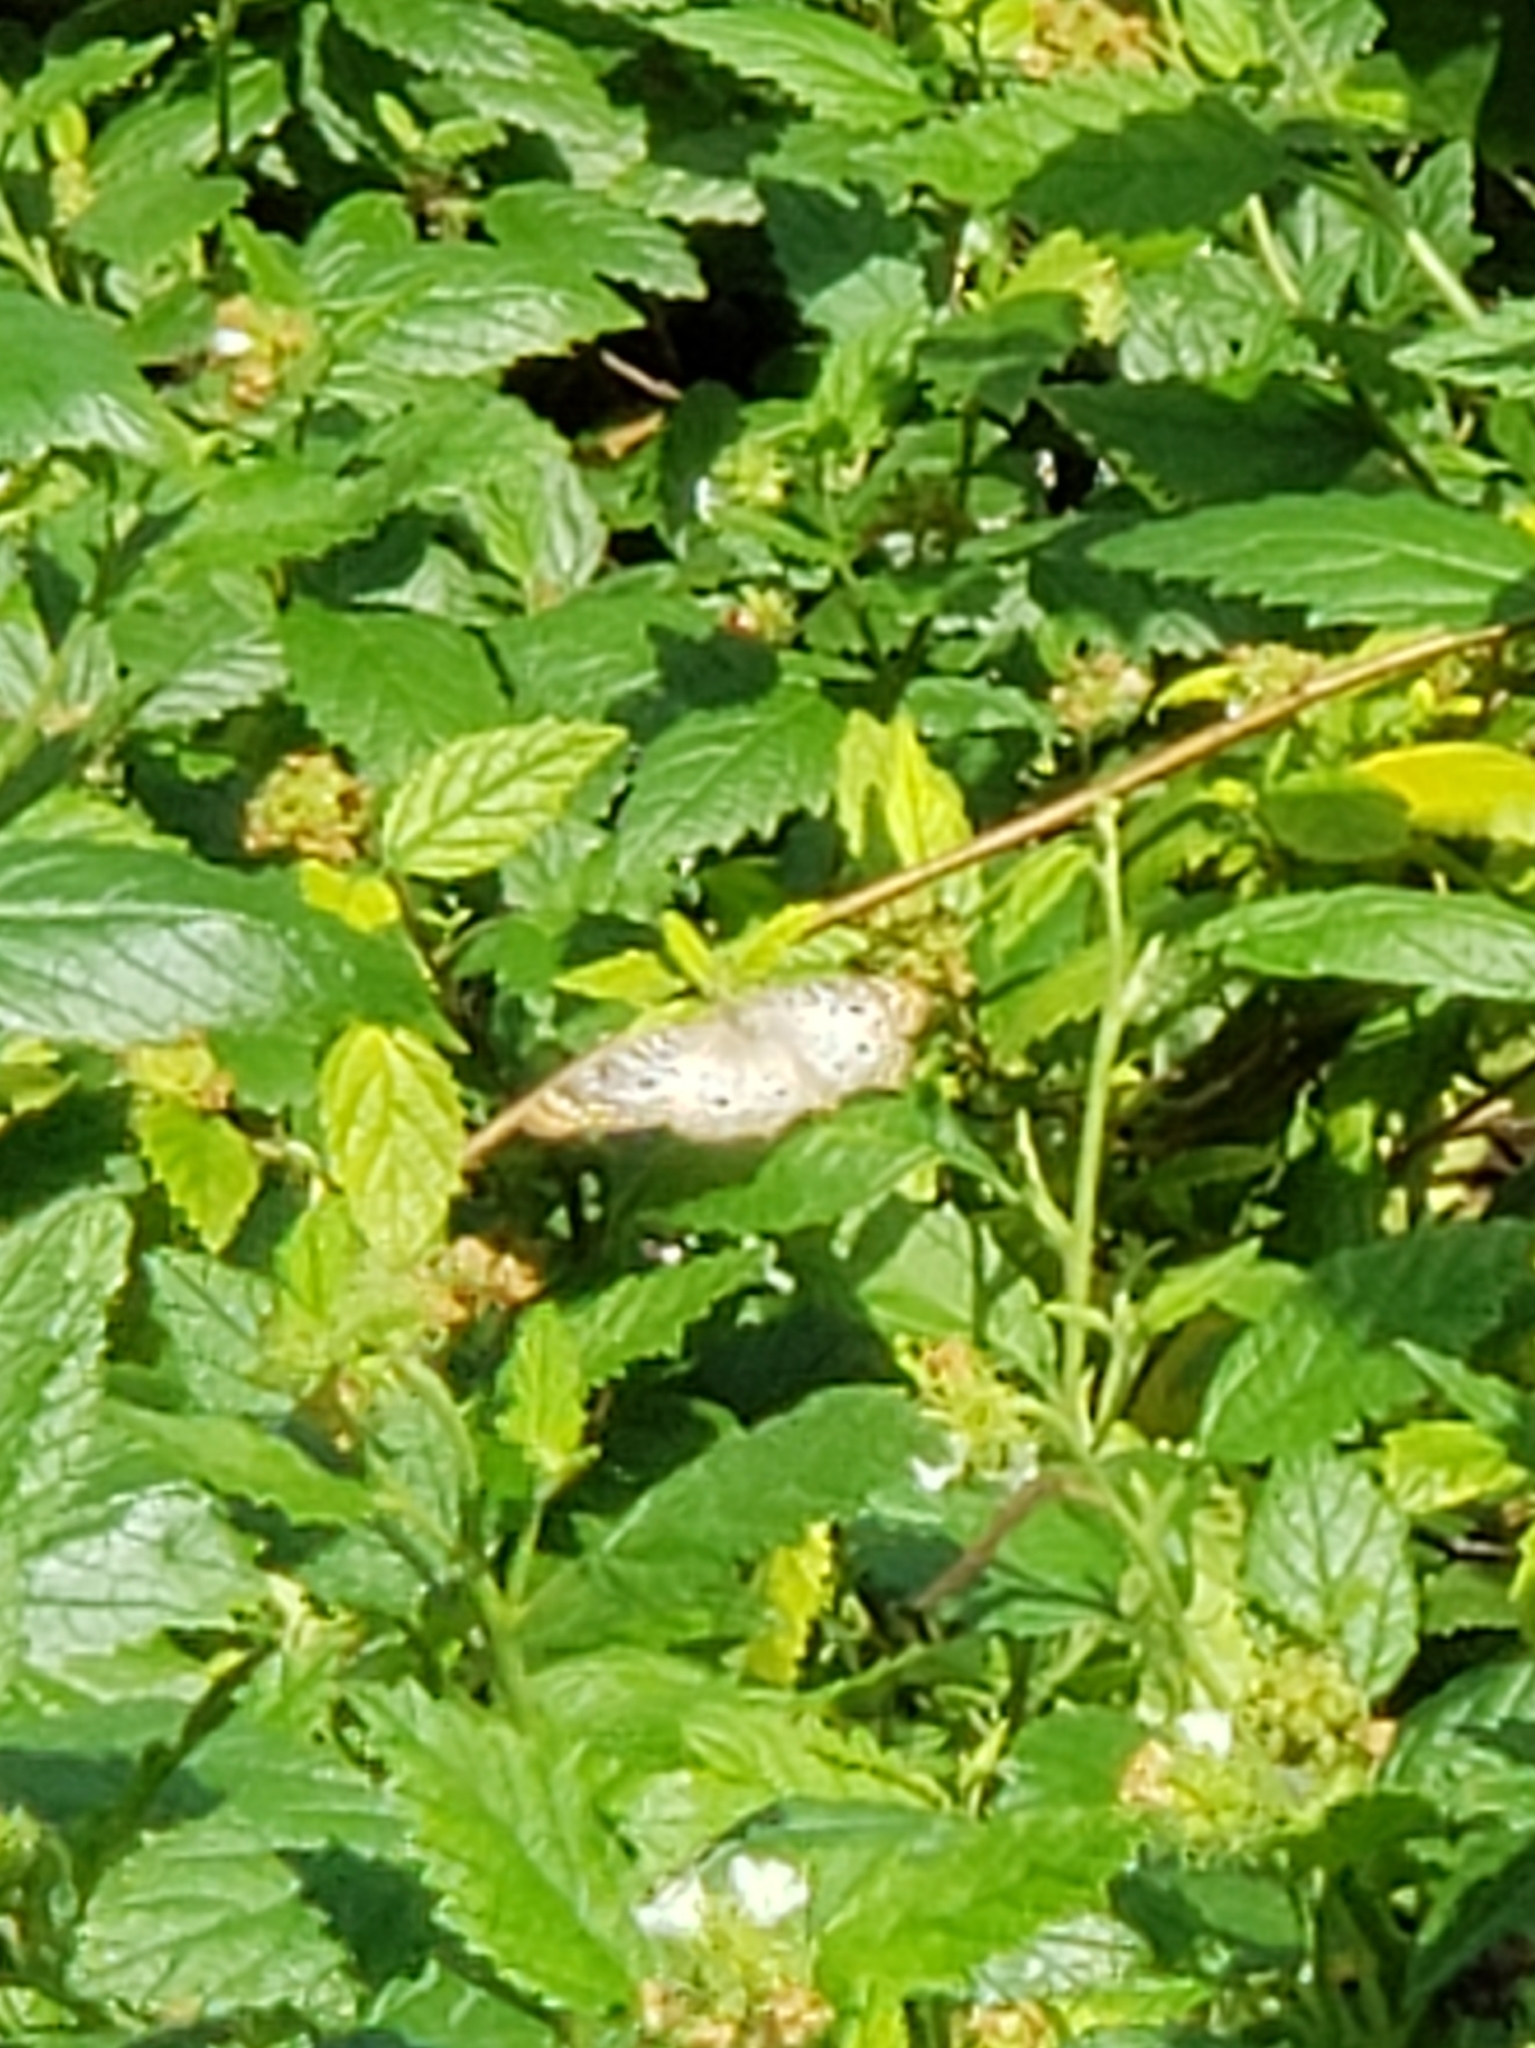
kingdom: Animalia
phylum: Arthropoda
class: Insecta
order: Lepidoptera
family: Nymphalidae
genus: Anartia
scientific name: Anartia jatrophae
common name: White peacock
